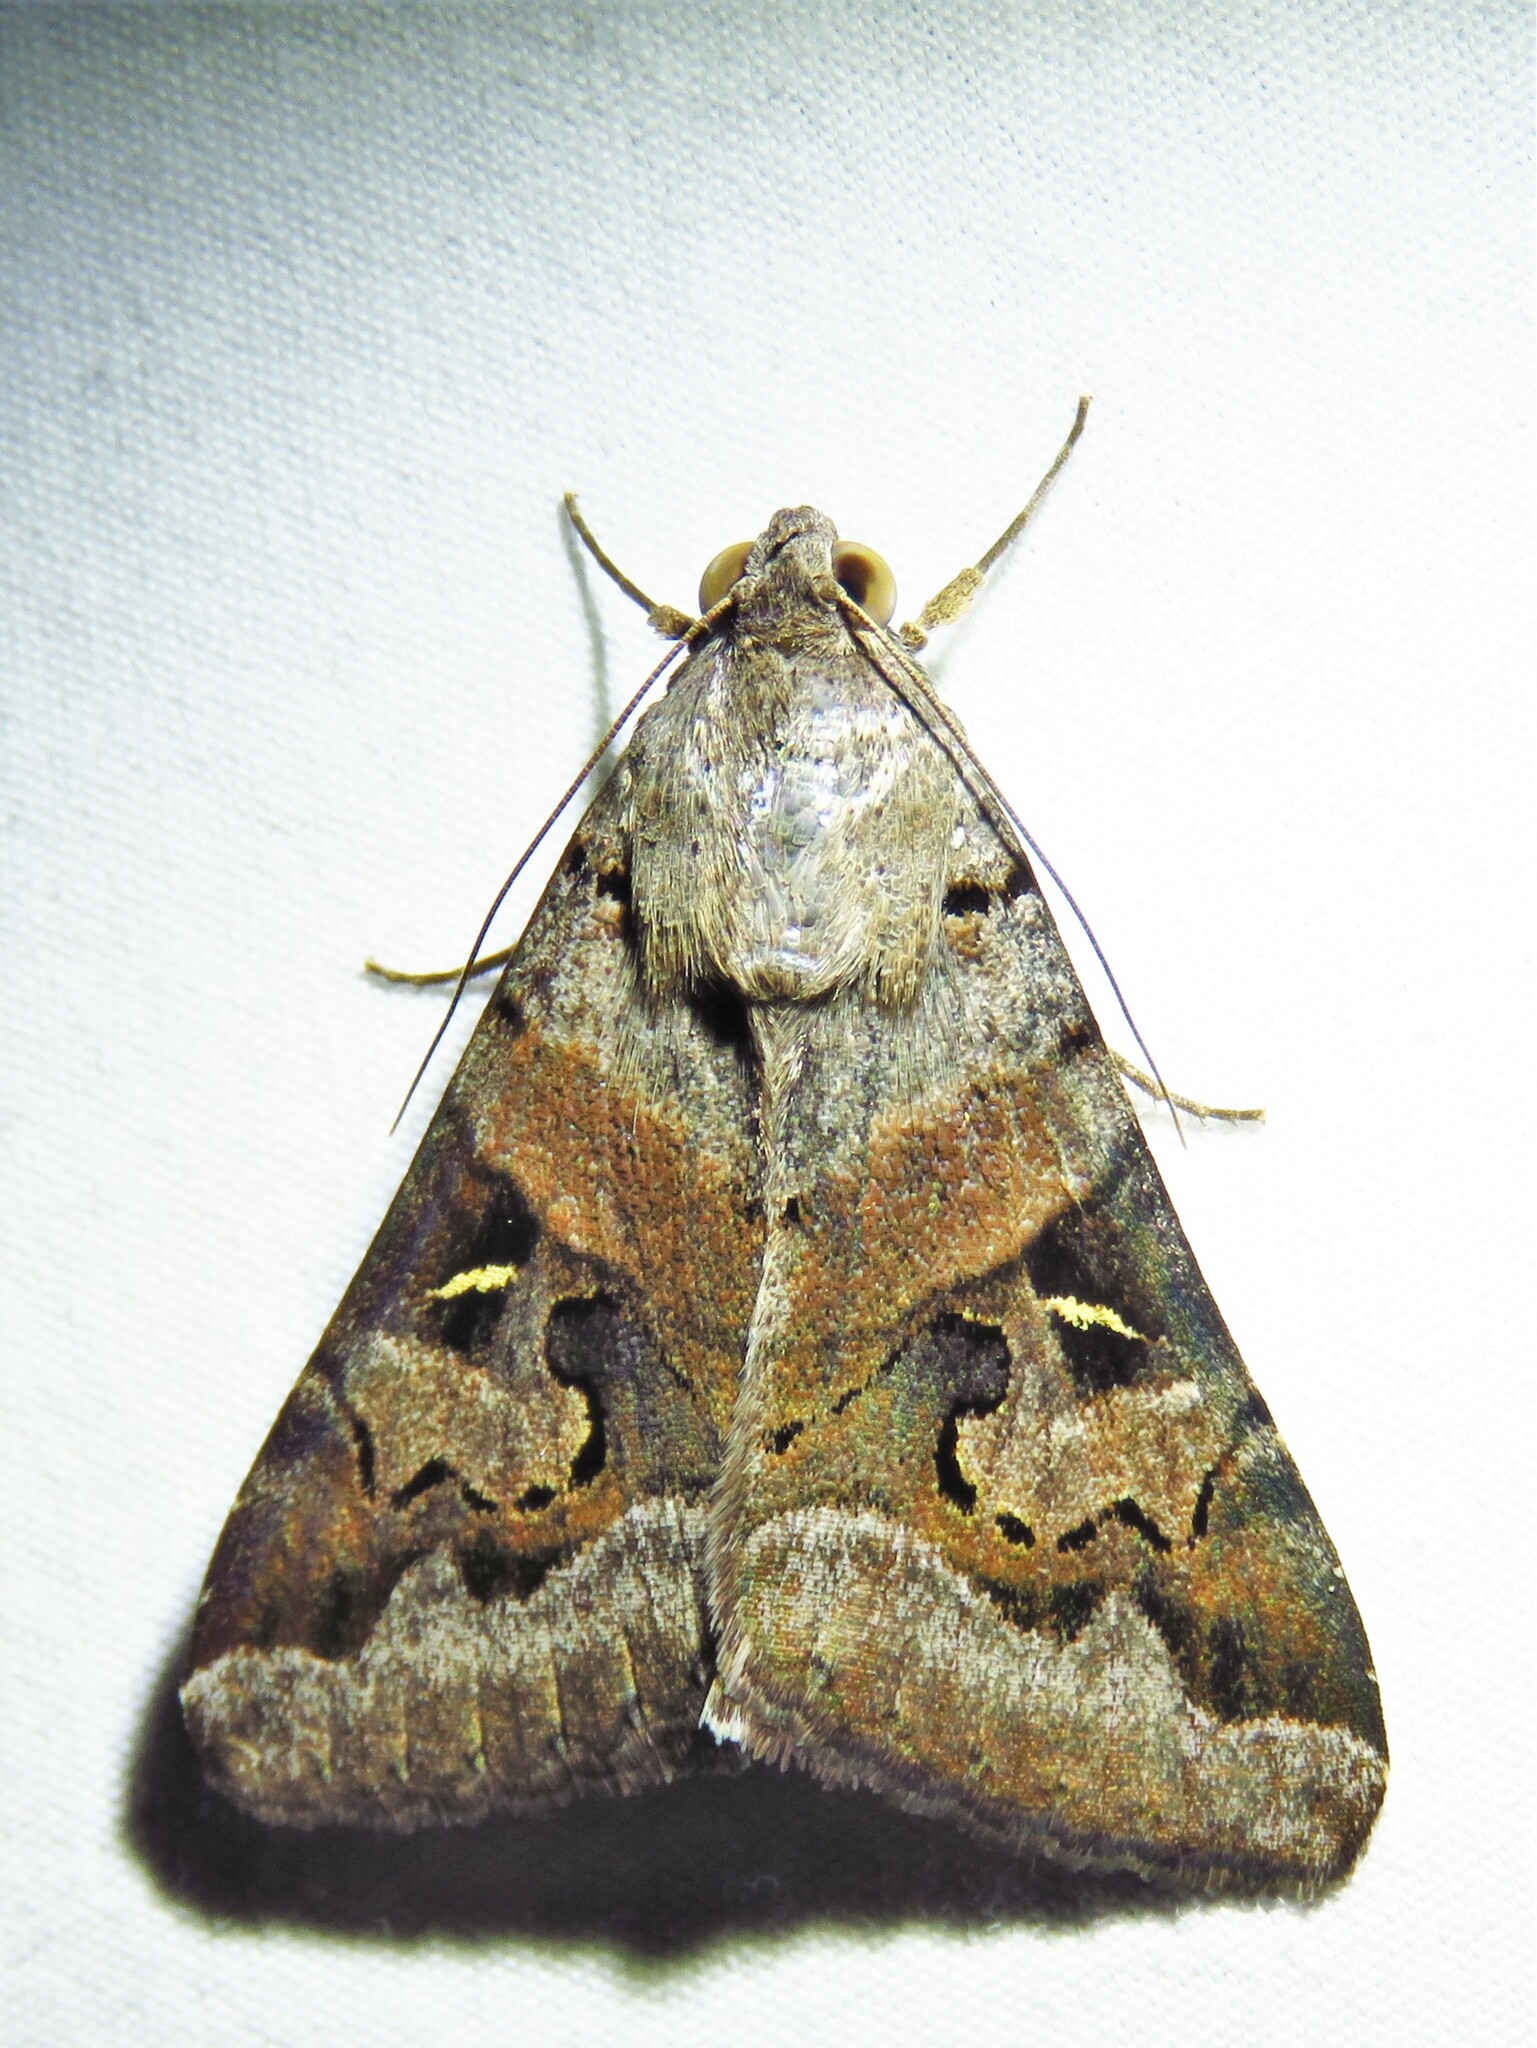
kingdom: Animalia
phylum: Arthropoda
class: Insecta
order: Lepidoptera
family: Erebidae
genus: Melipotis
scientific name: Melipotis indomita
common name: Moth
